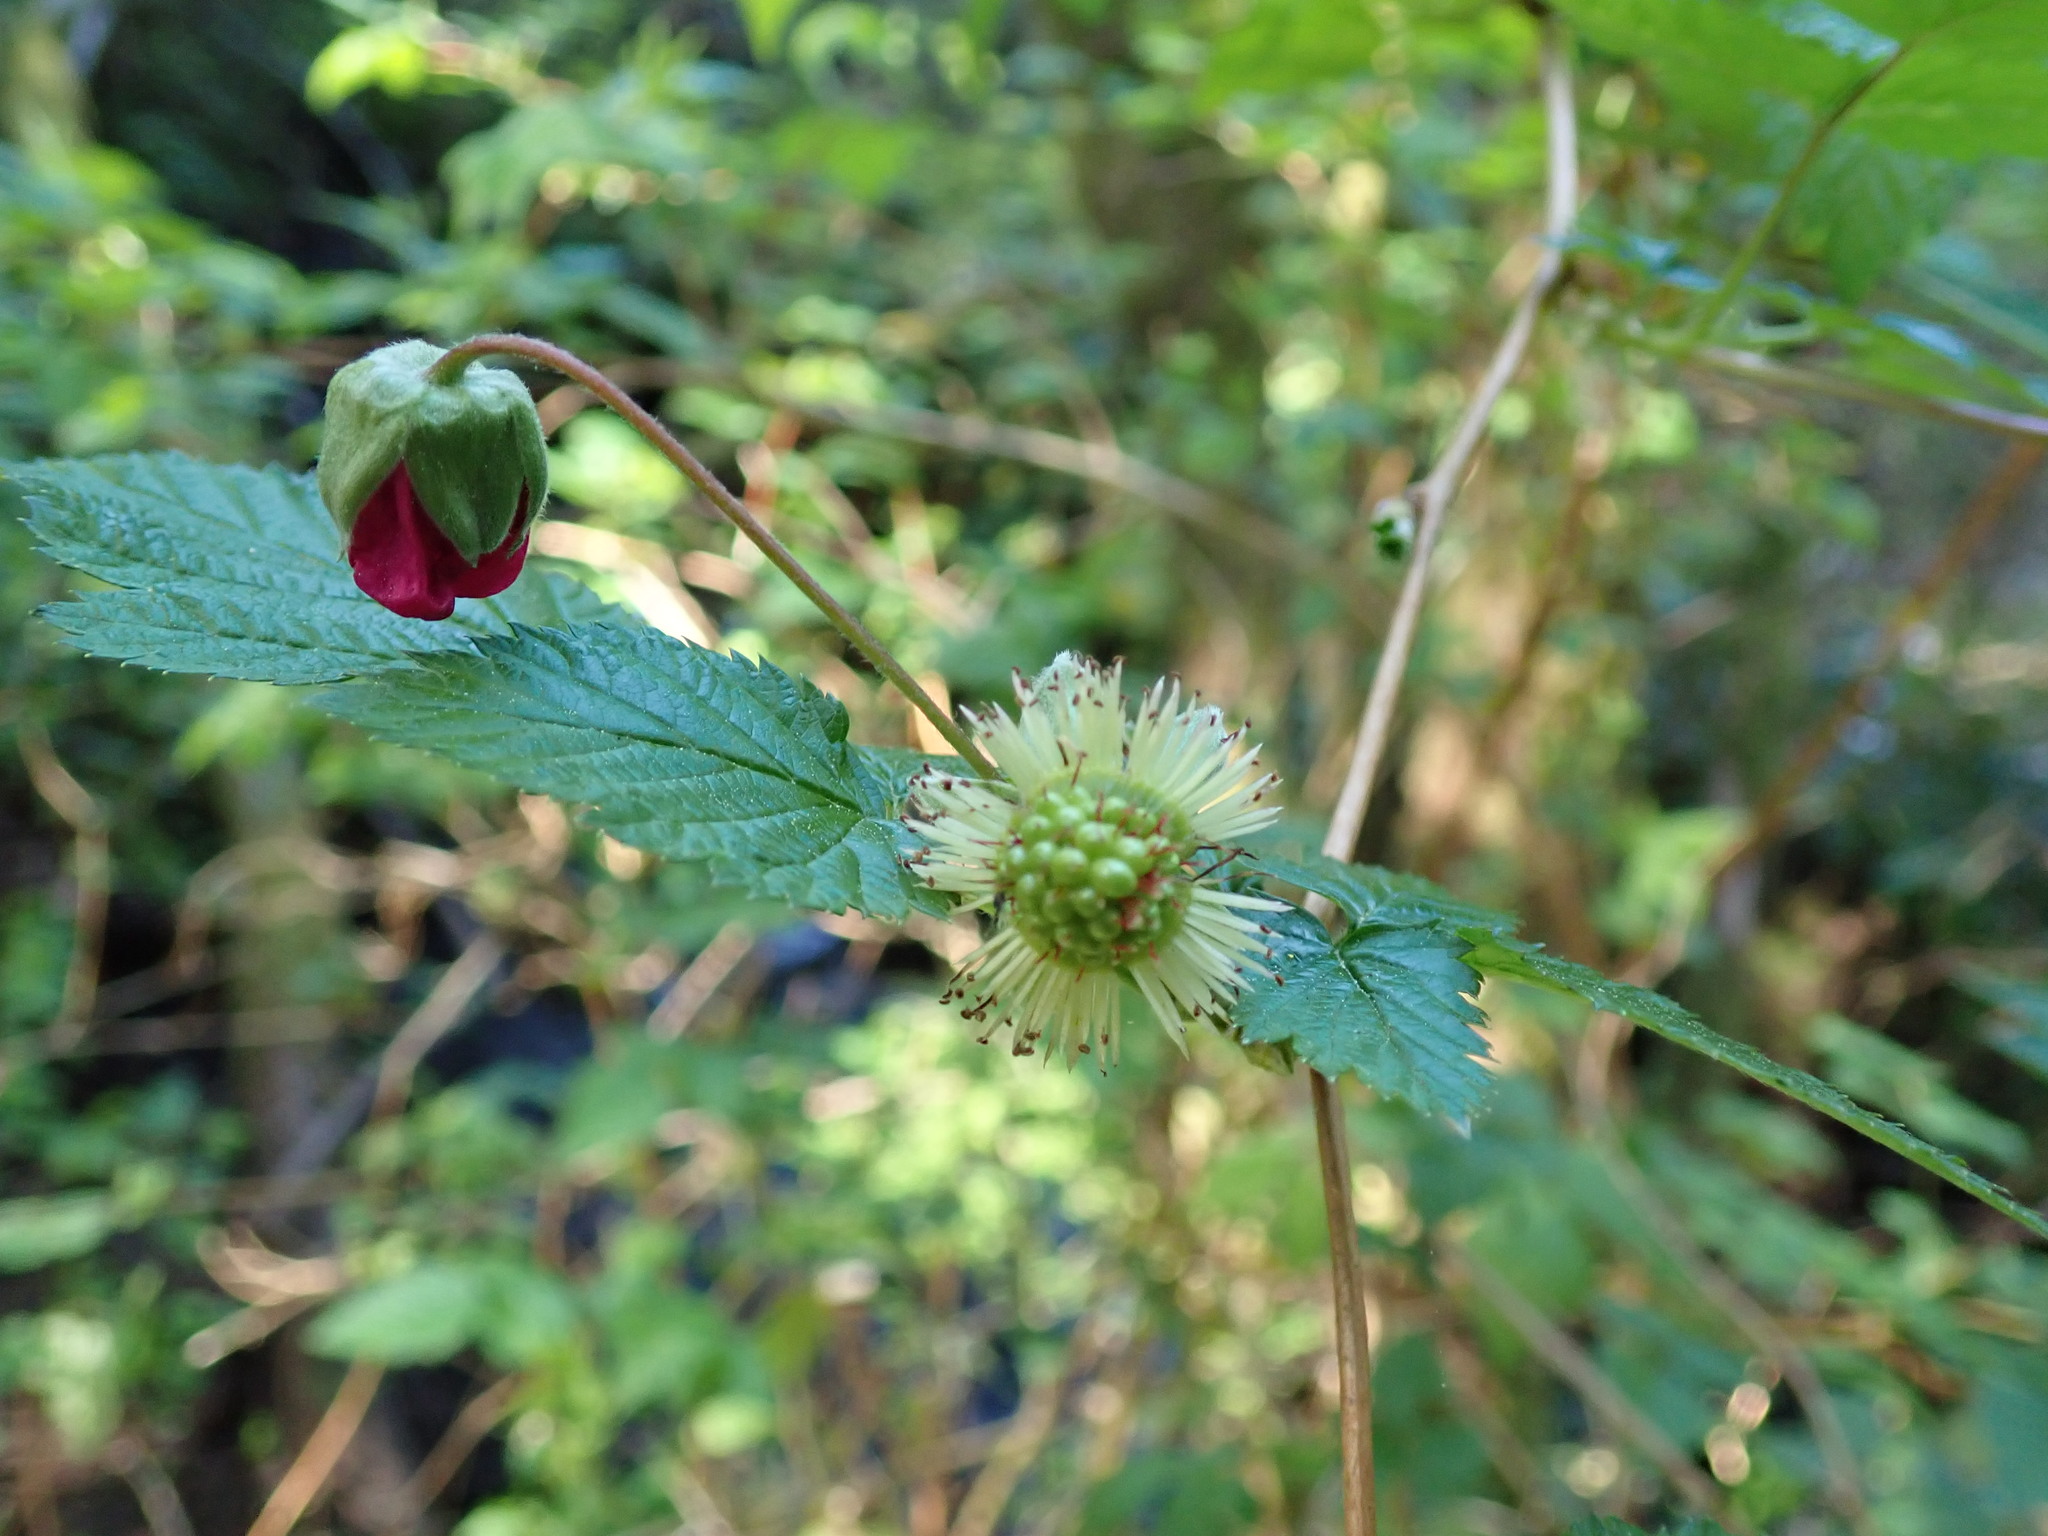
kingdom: Plantae
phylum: Tracheophyta
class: Magnoliopsida
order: Rosales
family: Rosaceae
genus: Rubus
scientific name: Rubus spectabilis
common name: Salmonberry
